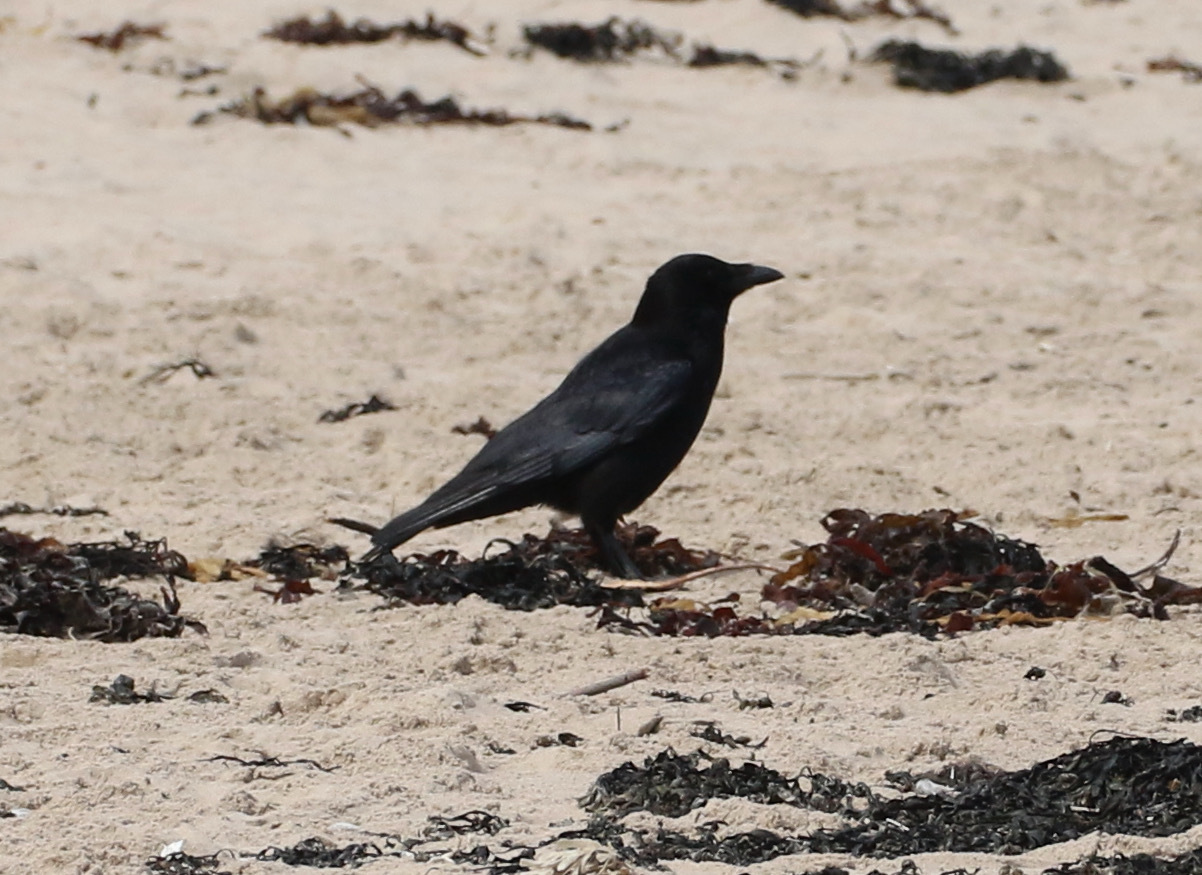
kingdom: Animalia
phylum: Chordata
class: Aves
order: Passeriformes
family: Corvidae
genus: Corvus
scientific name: Corvus corone
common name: Carrion crow
